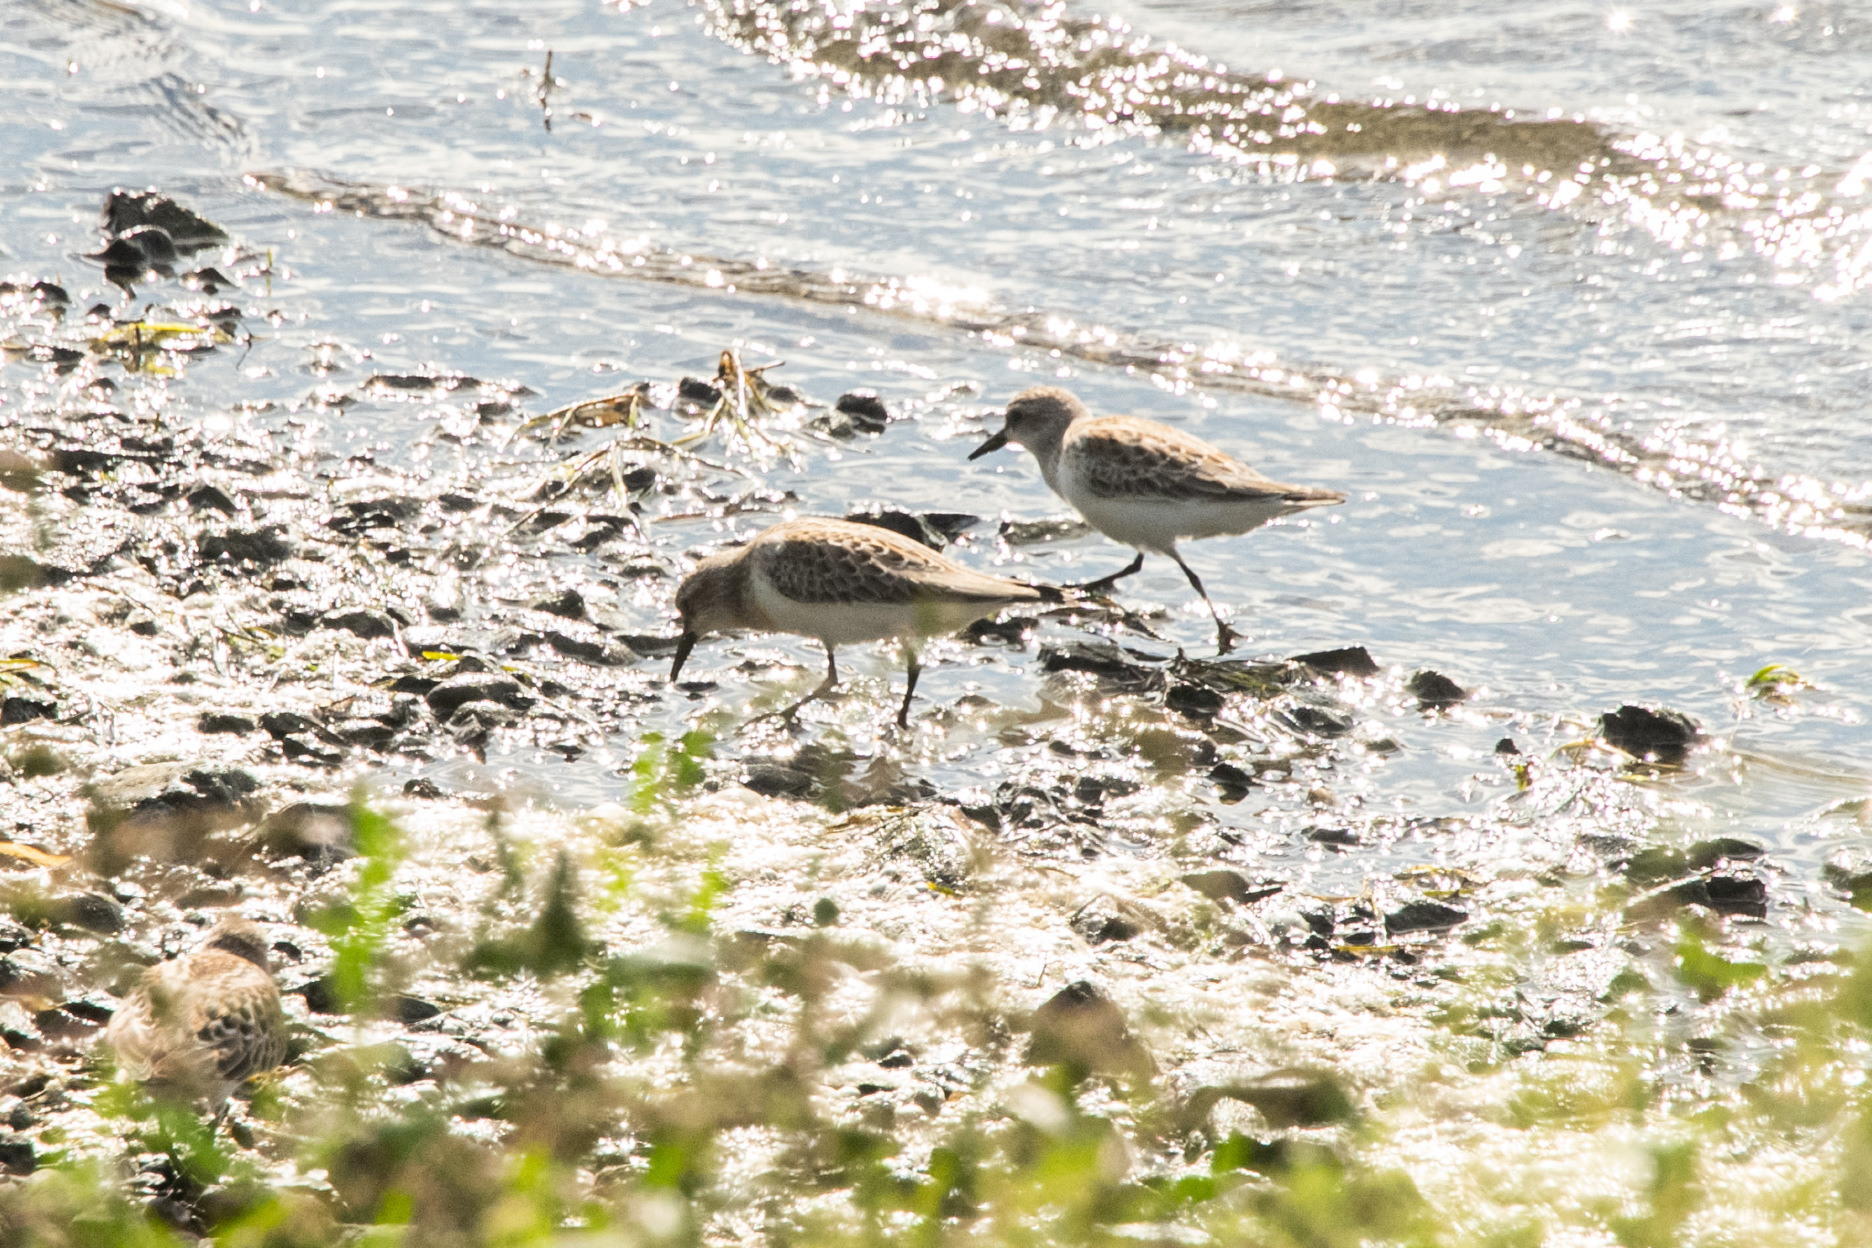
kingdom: Animalia
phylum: Chordata
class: Aves
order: Charadriiformes
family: Scolopacidae
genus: Calidris
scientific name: Calidris ruficollis
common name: Red-necked stint
